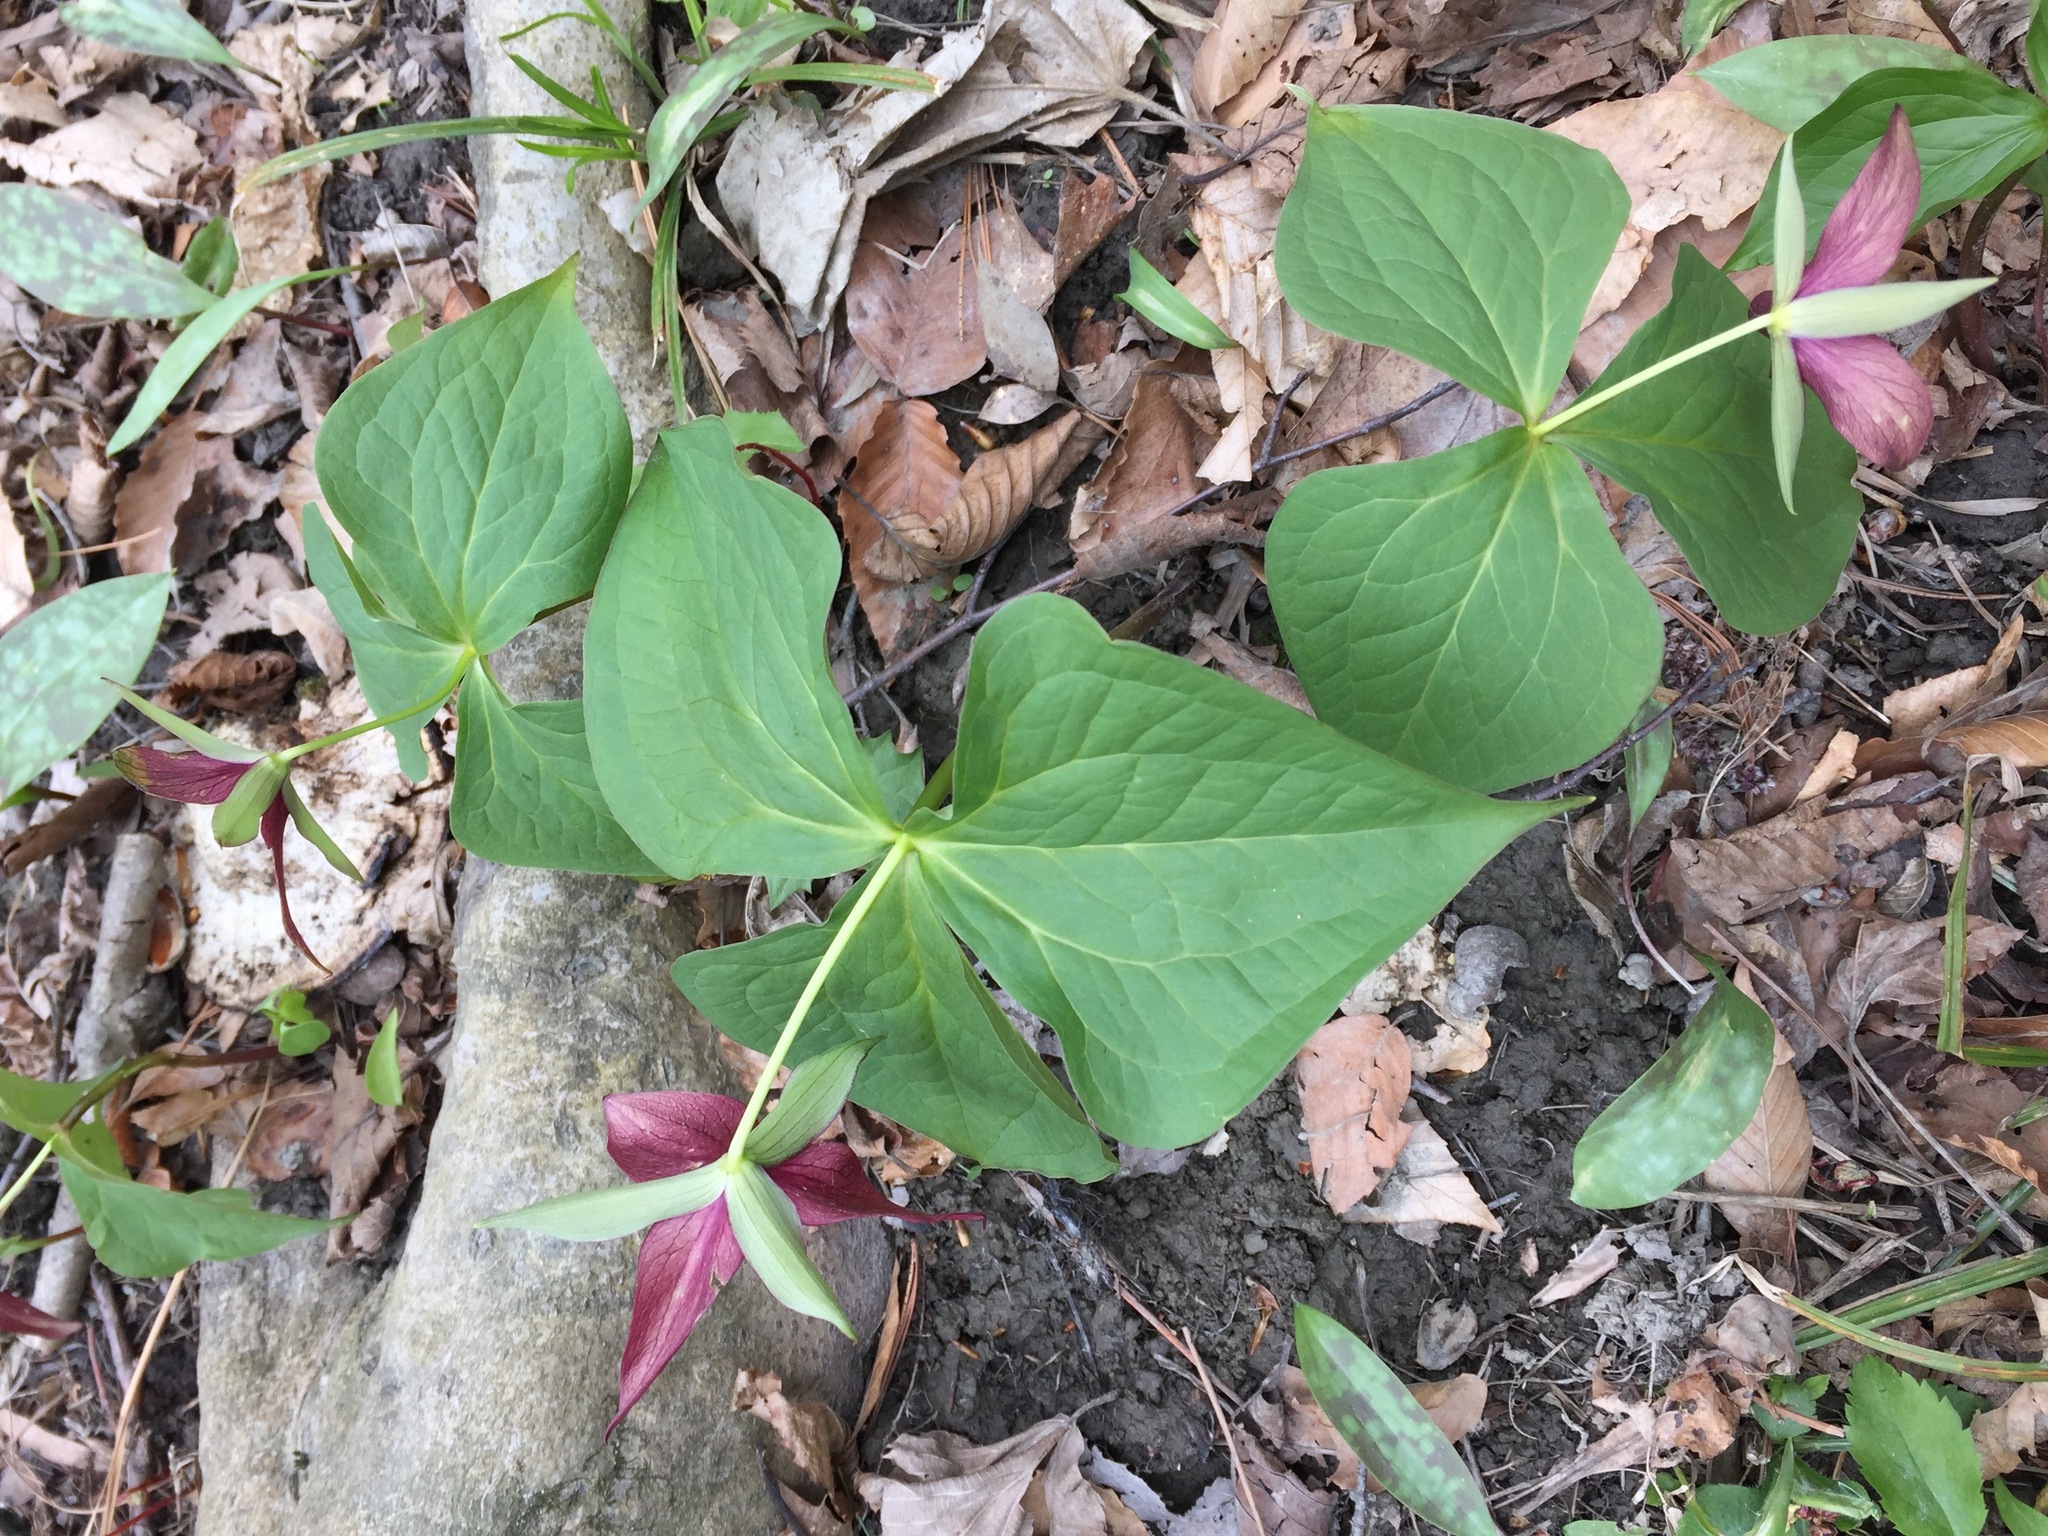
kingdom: Plantae
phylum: Tracheophyta
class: Liliopsida
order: Liliales
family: Melanthiaceae
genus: Trillium
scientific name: Trillium erectum
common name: Purple trillium
